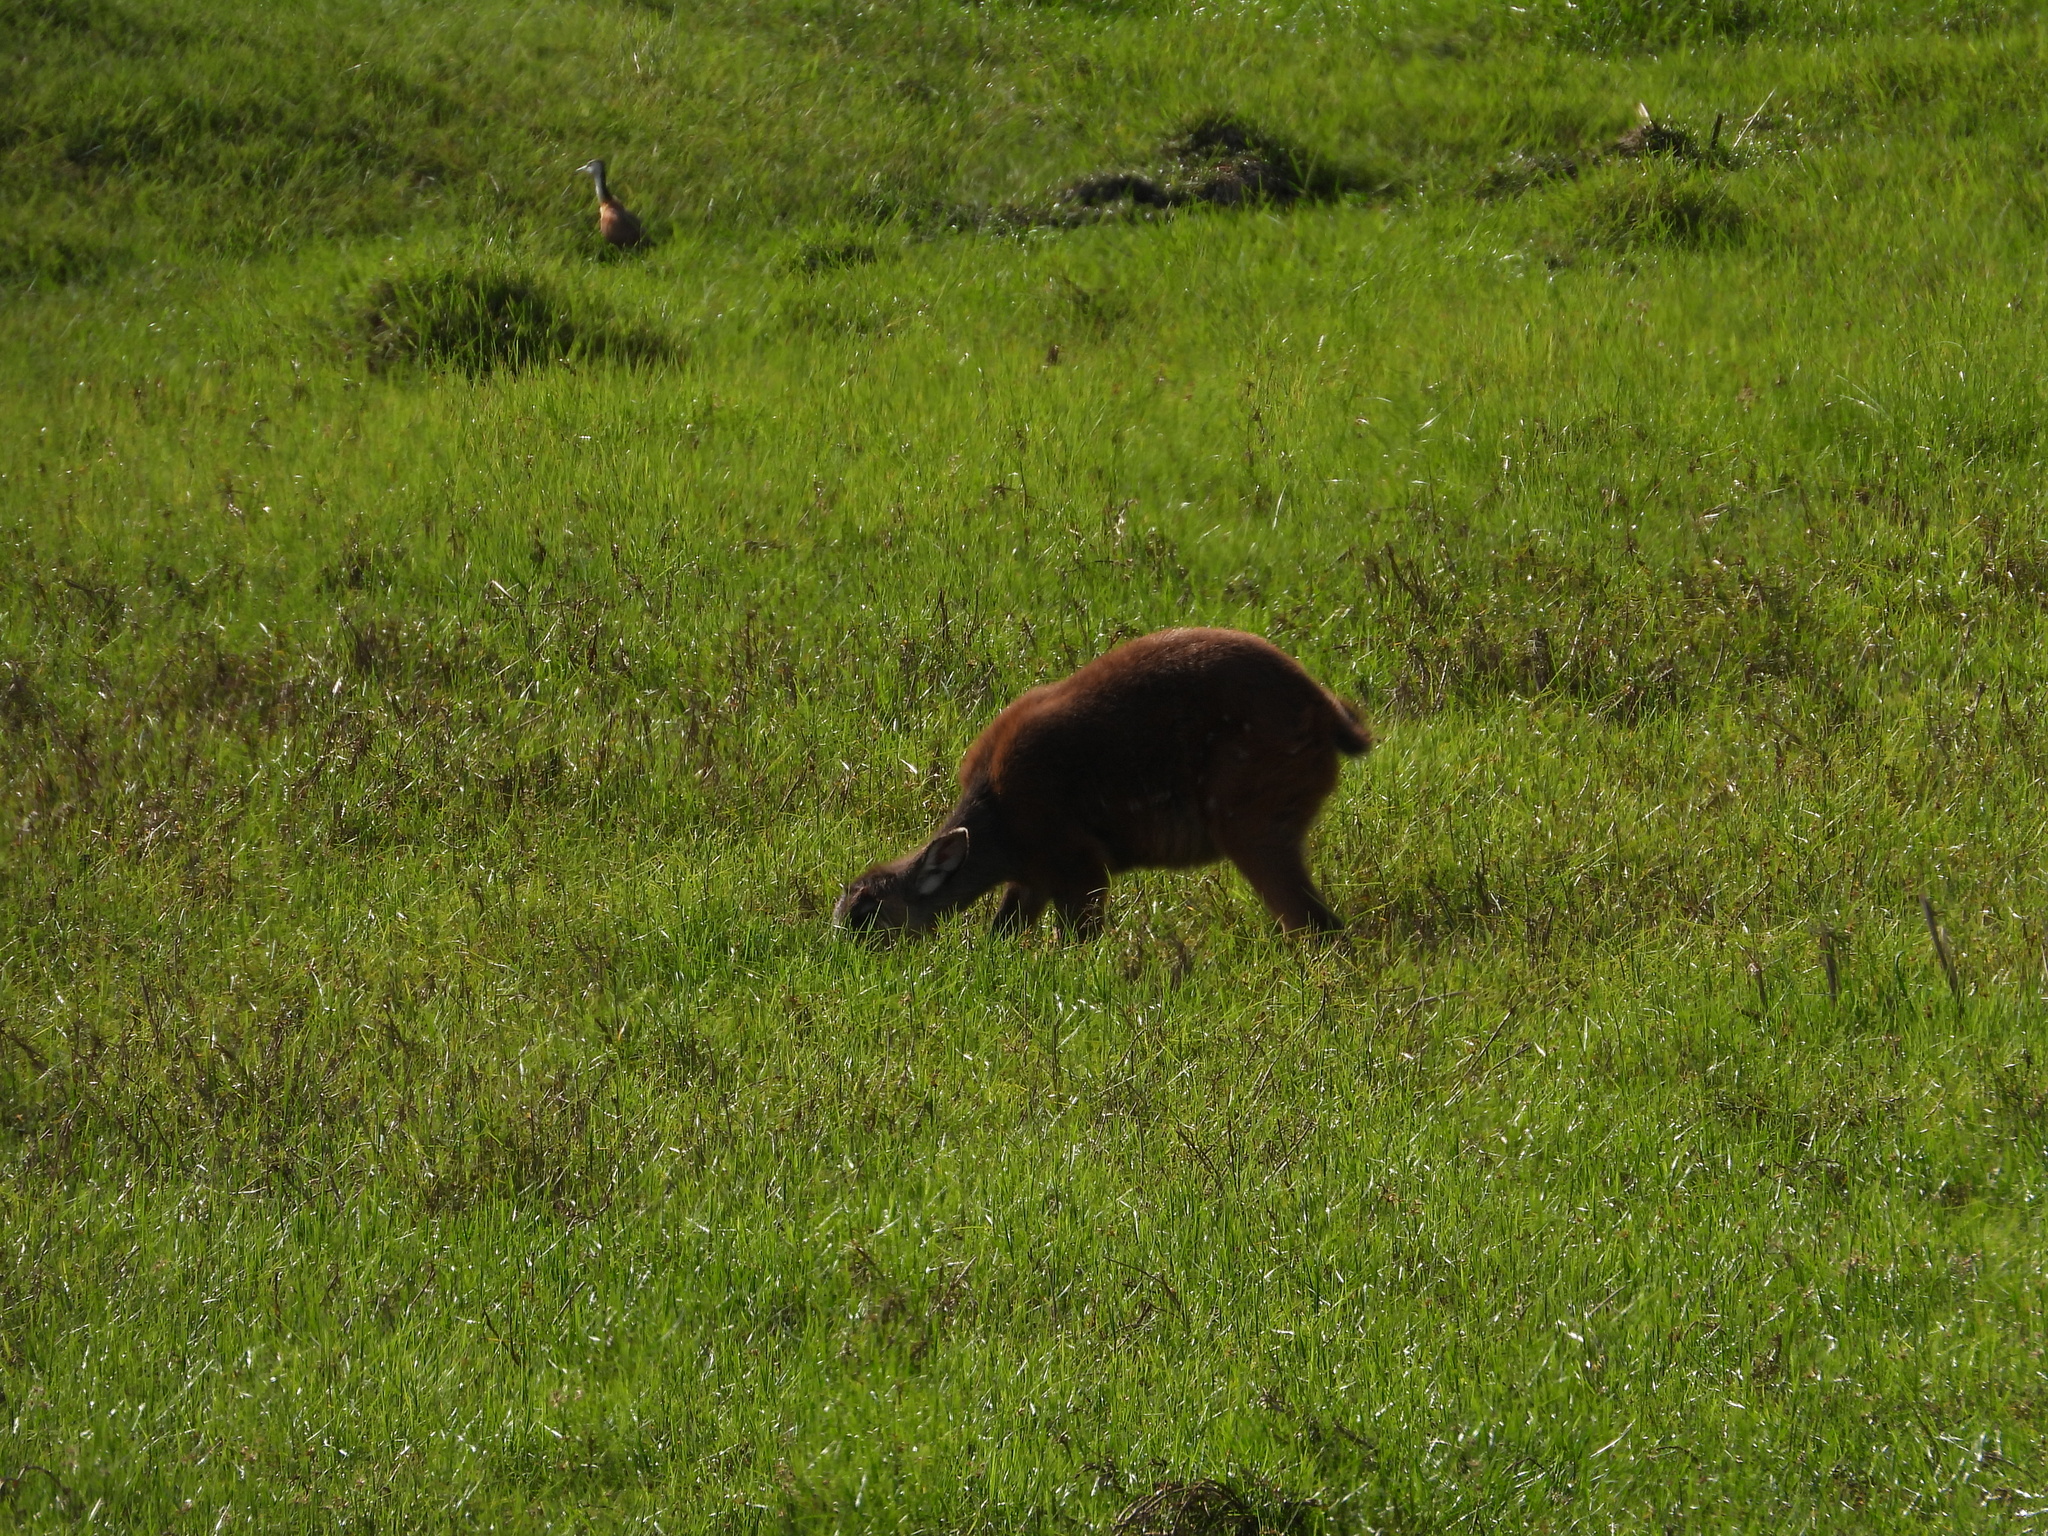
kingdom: Animalia
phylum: Chordata
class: Mammalia
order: Artiodactyla
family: Bovidae
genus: Tragelaphus
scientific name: Tragelaphus spekii
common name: Sitatunga
